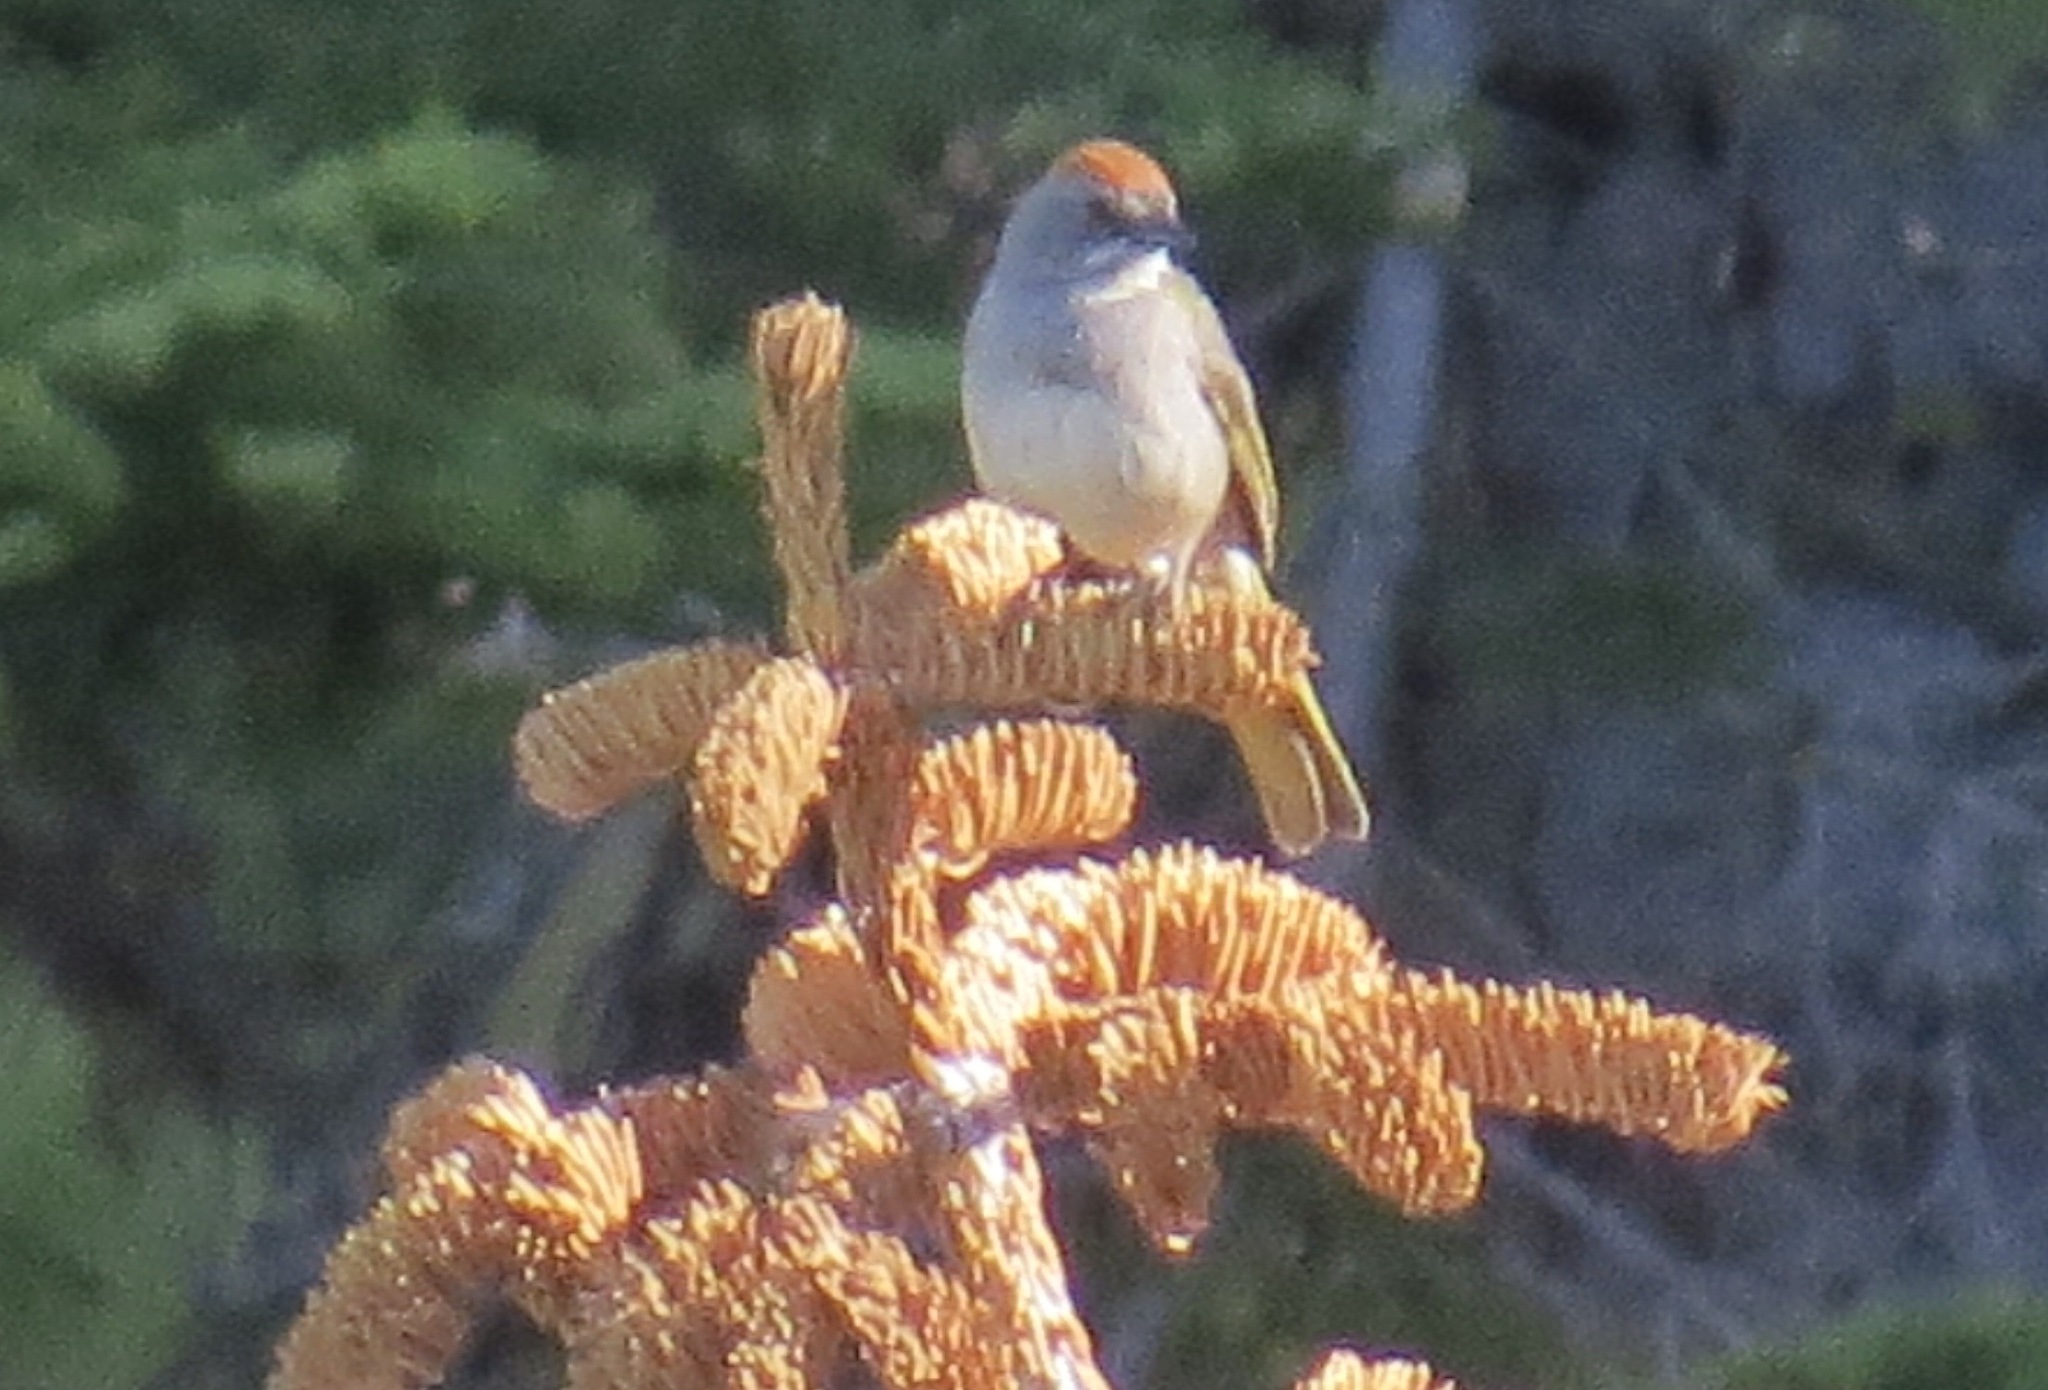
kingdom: Animalia
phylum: Chordata
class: Aves
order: Passeriformes
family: Passerellidae
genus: Pipilo
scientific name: Pipilo chlorurus
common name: Green-tailed towhee
